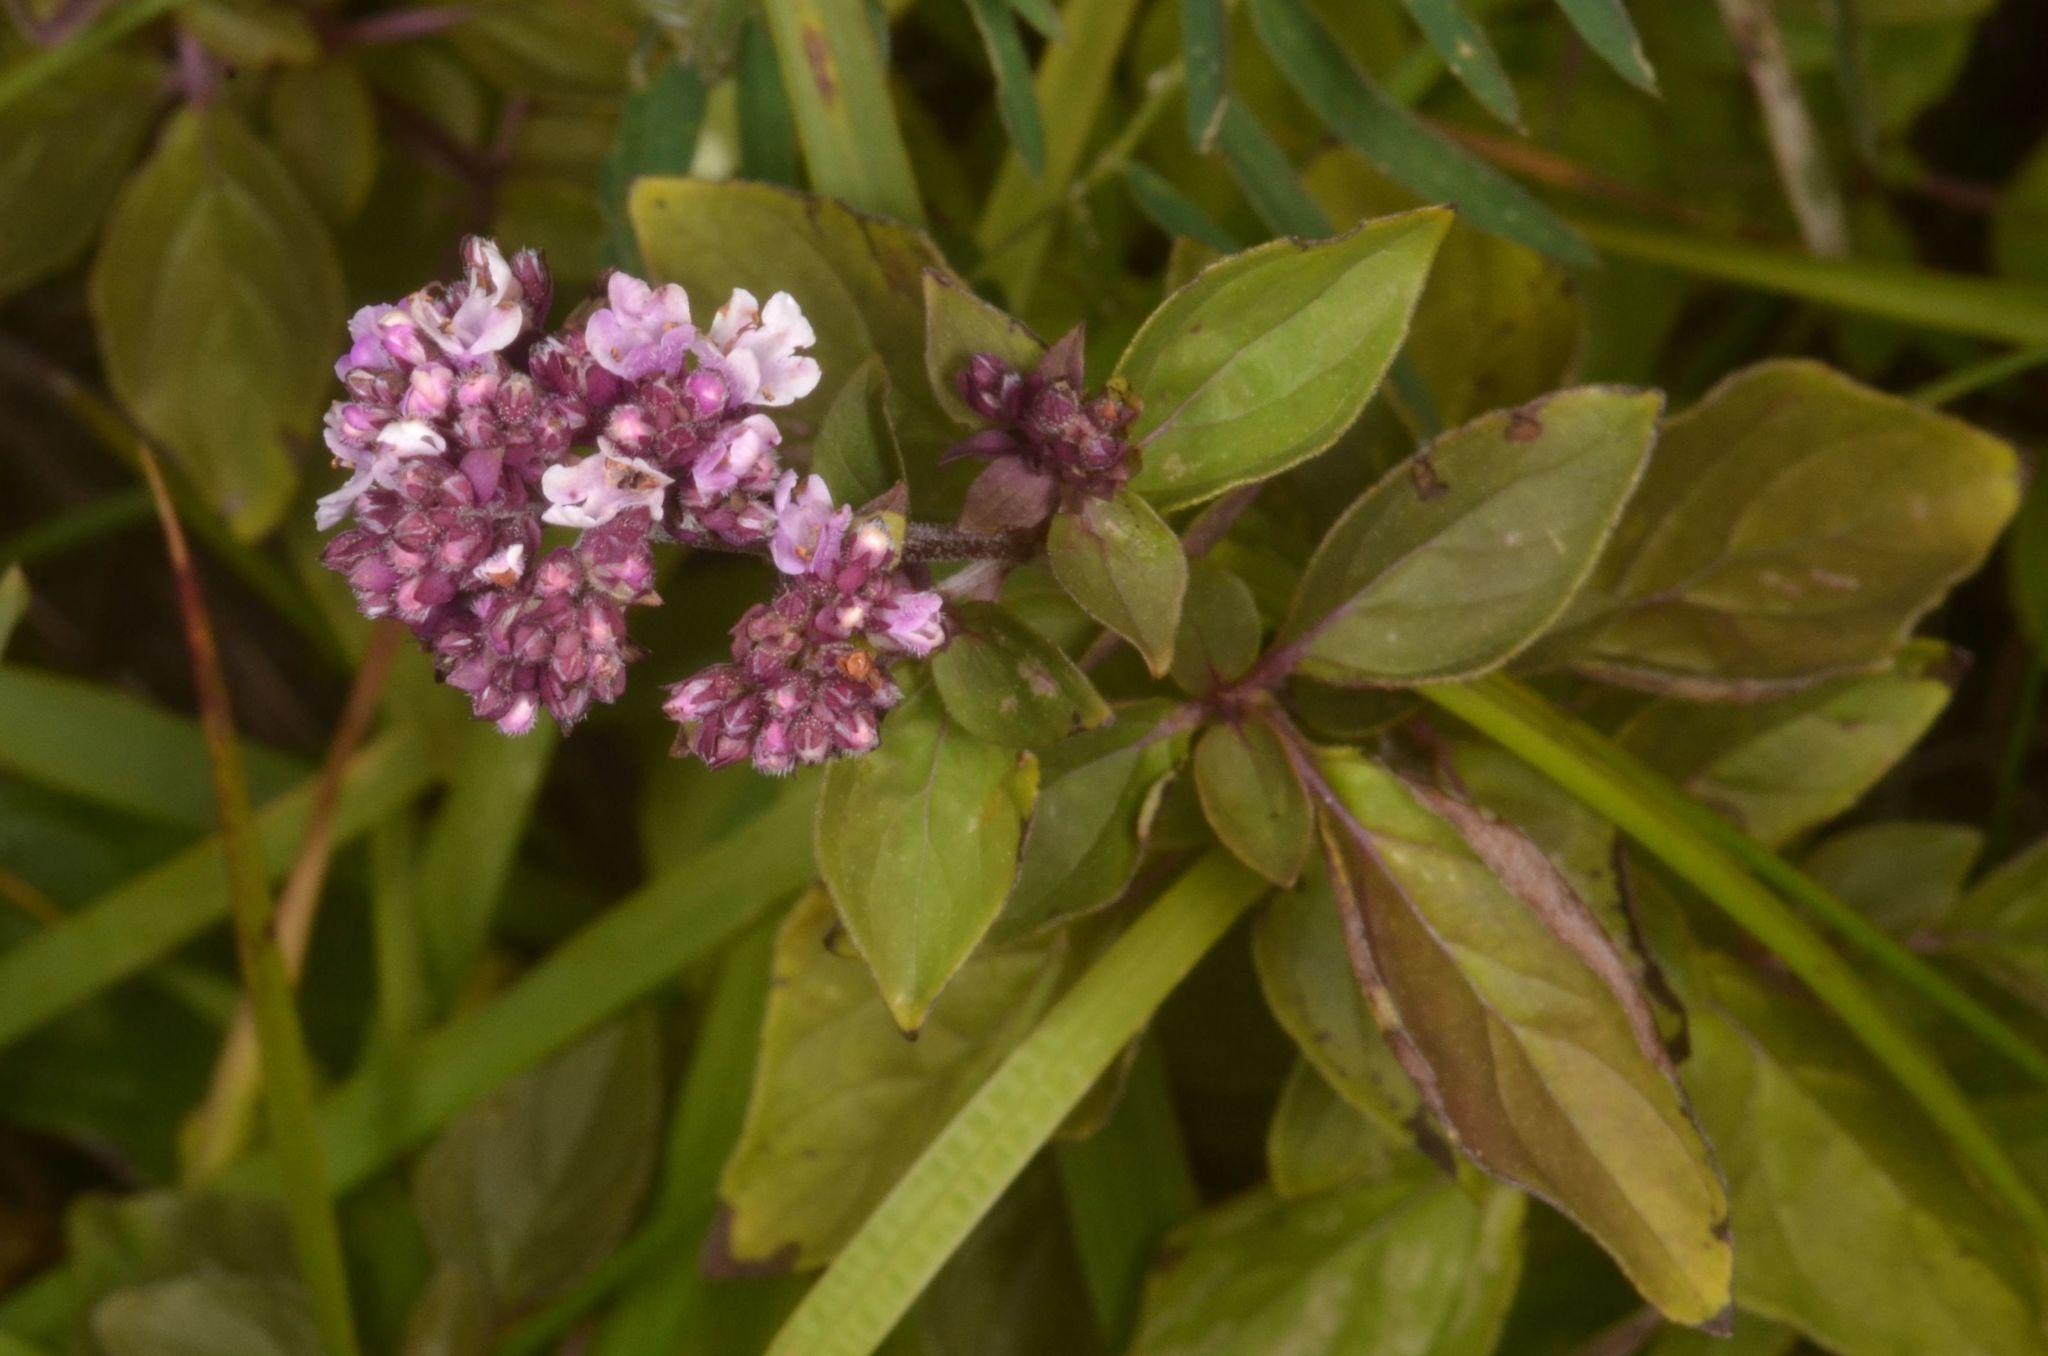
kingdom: Plantae
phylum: Tracheophyta
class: Magnoliopsida
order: Lamiales
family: Lamiaceae
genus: Origanum
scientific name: Origanum vulgare
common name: Wild marjoram
